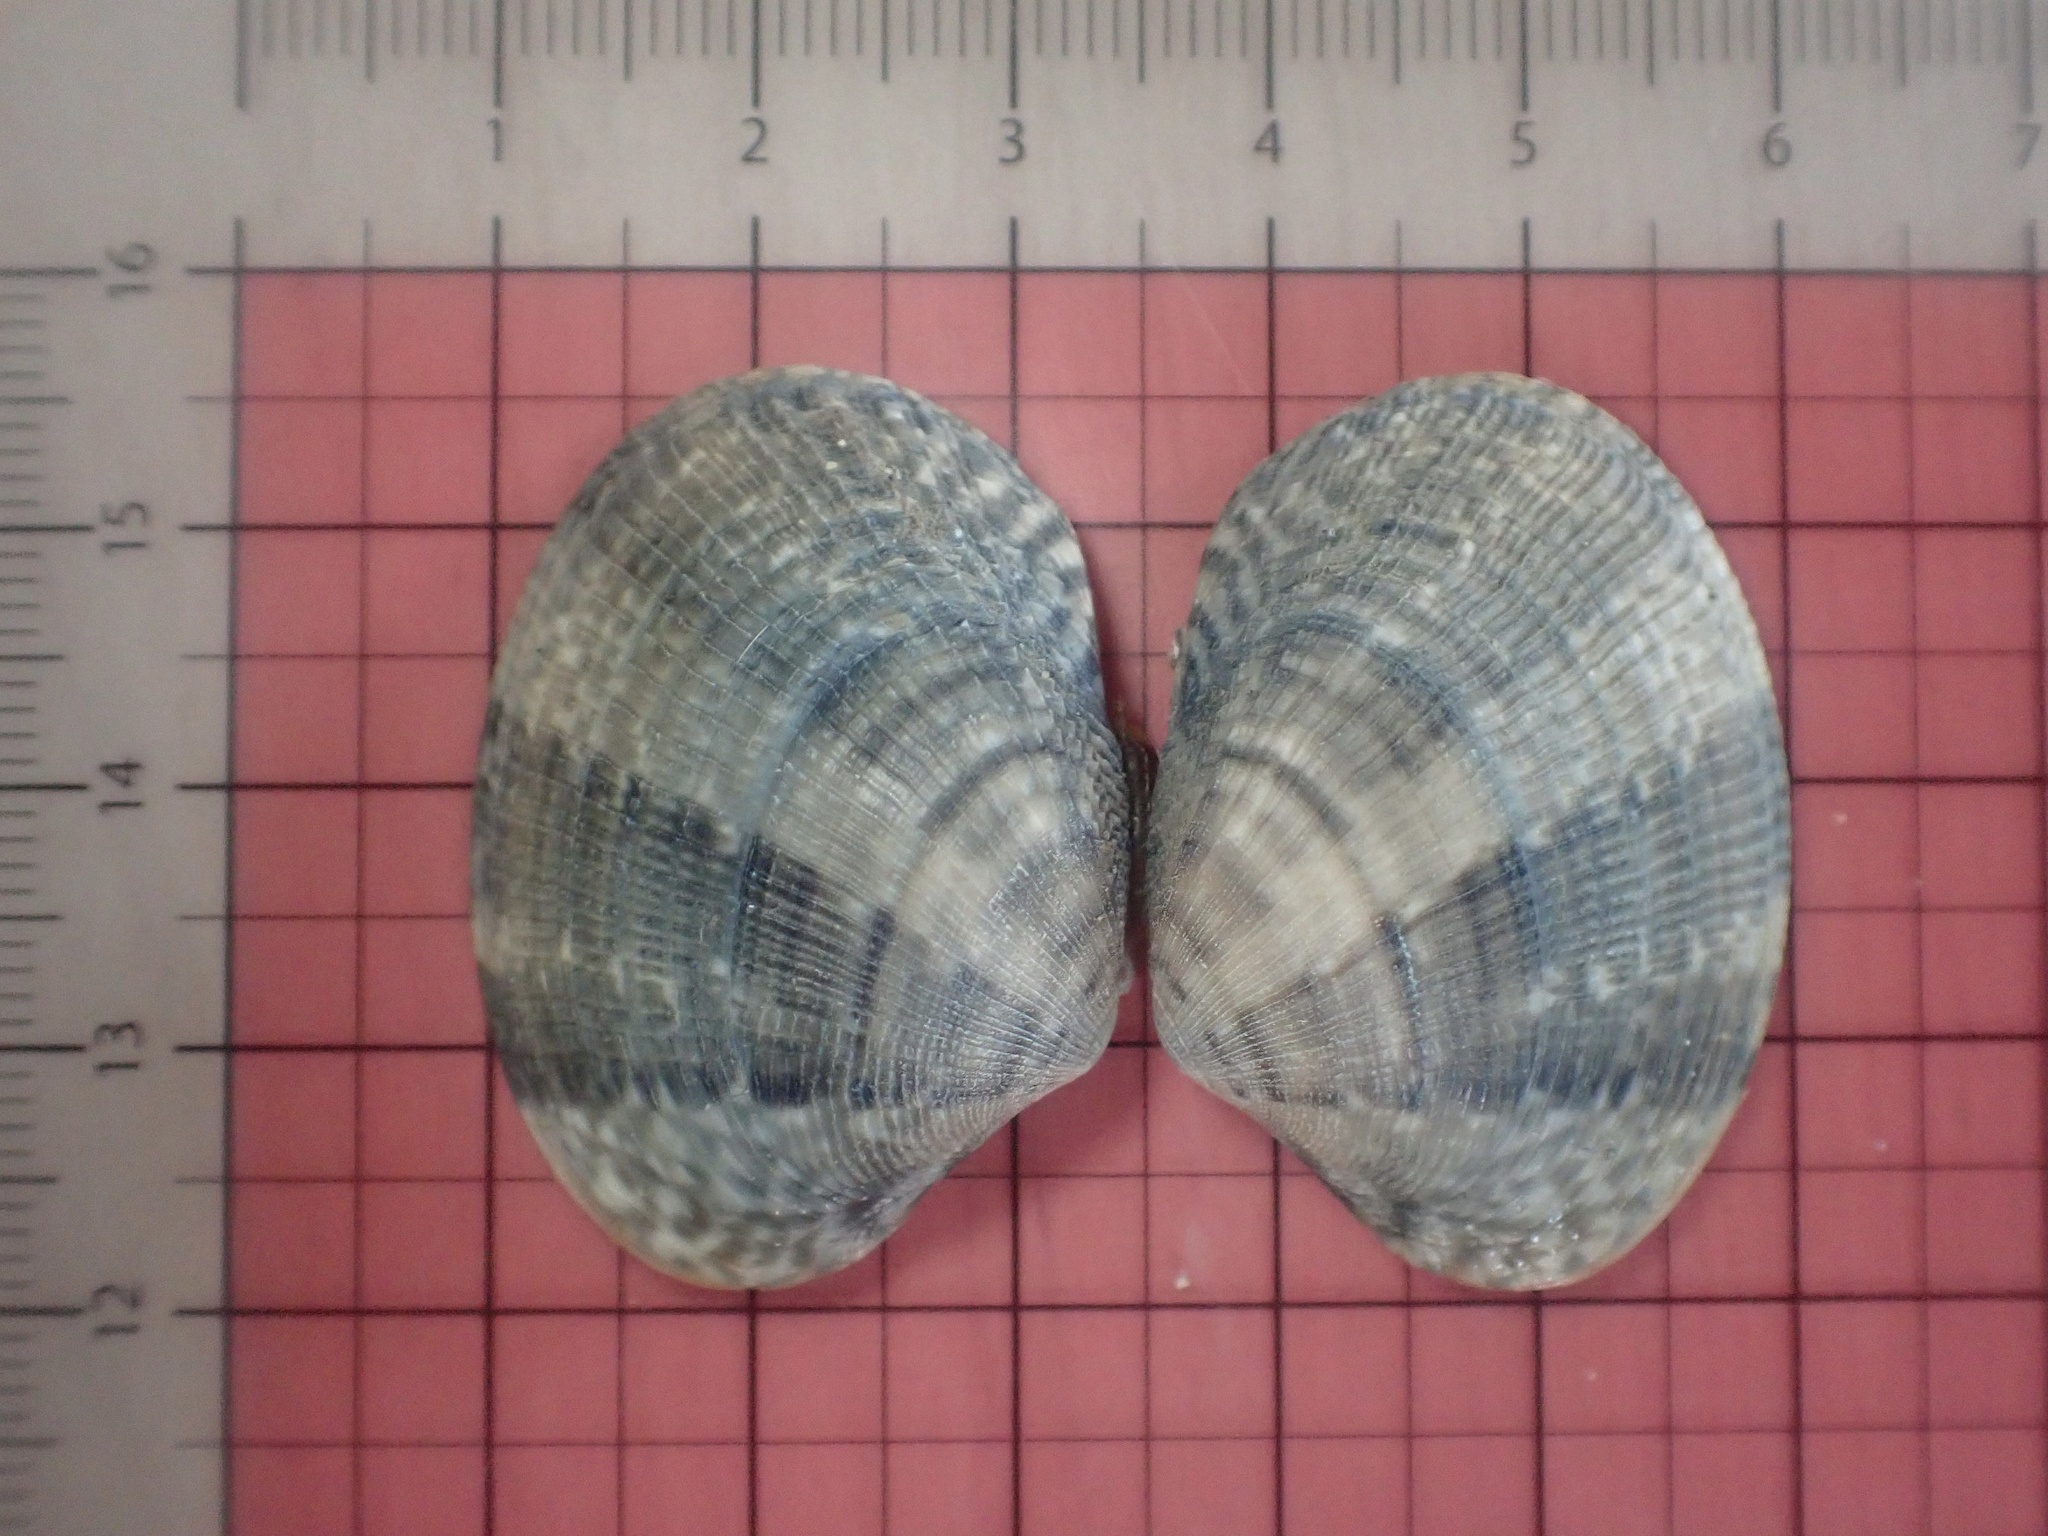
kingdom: Animalia
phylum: Mollusca
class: Bivalvia
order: Venerida
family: Veneridae
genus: Ruditapes
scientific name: Ruditapes philippinarum
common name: Manila clam
